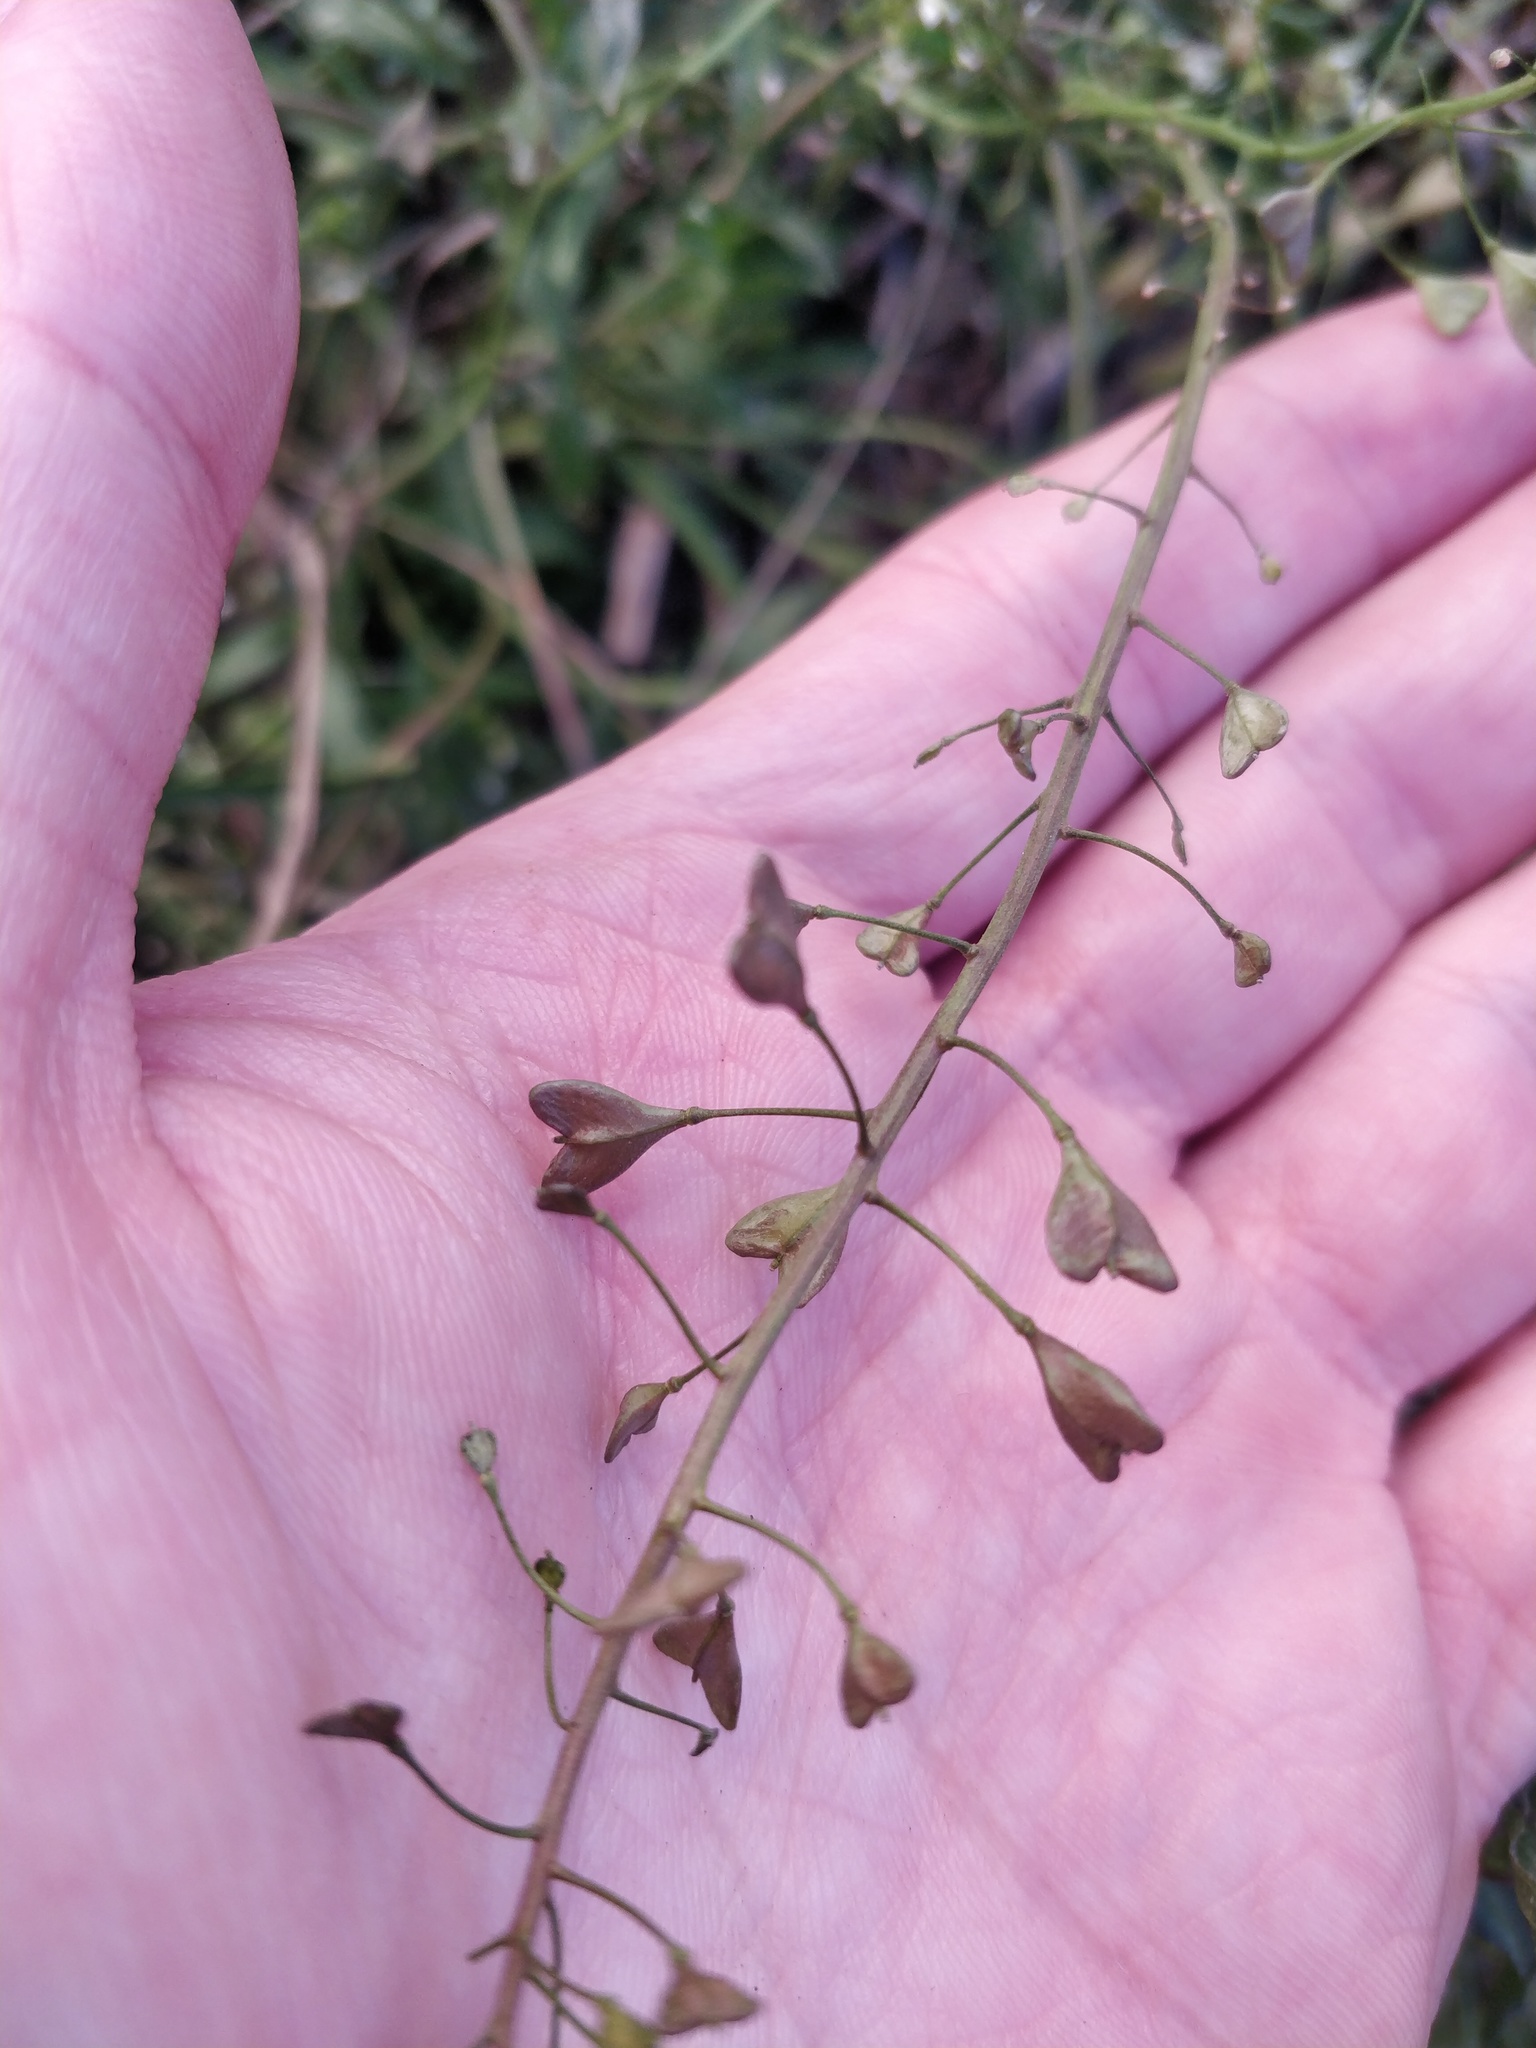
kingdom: Plantae
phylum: Tracheophyta
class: Magnoliopsida
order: Brassicales
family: Brassicaceae
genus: Capsella
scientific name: Capsella bursa-pastoris
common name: Shepherd's purse
